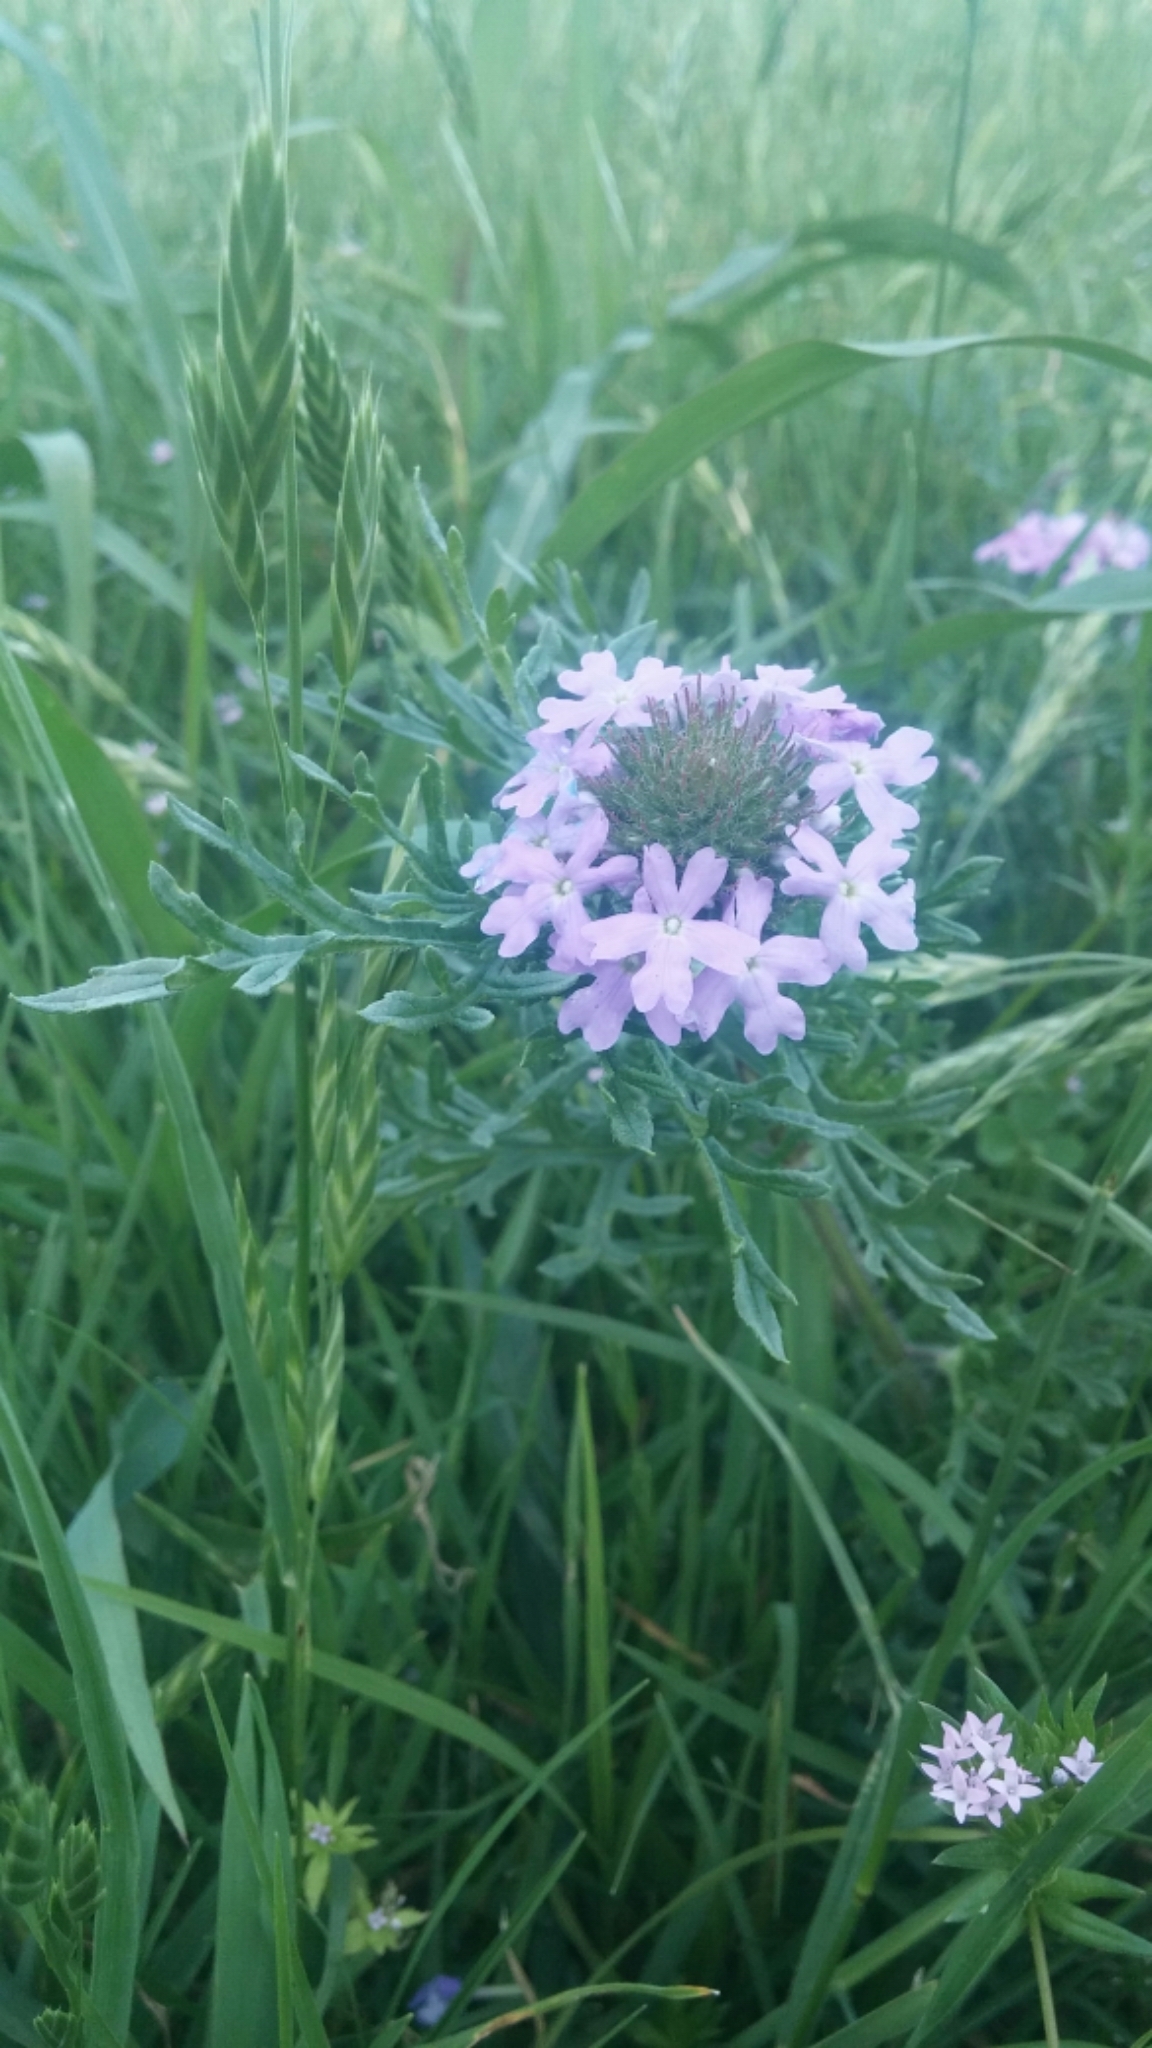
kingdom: Plantae
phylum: Tracheophyta
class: Magnoliopsida
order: Lamiales
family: Verbenaceae
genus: Verbena
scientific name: Verbena bipinnatifida
